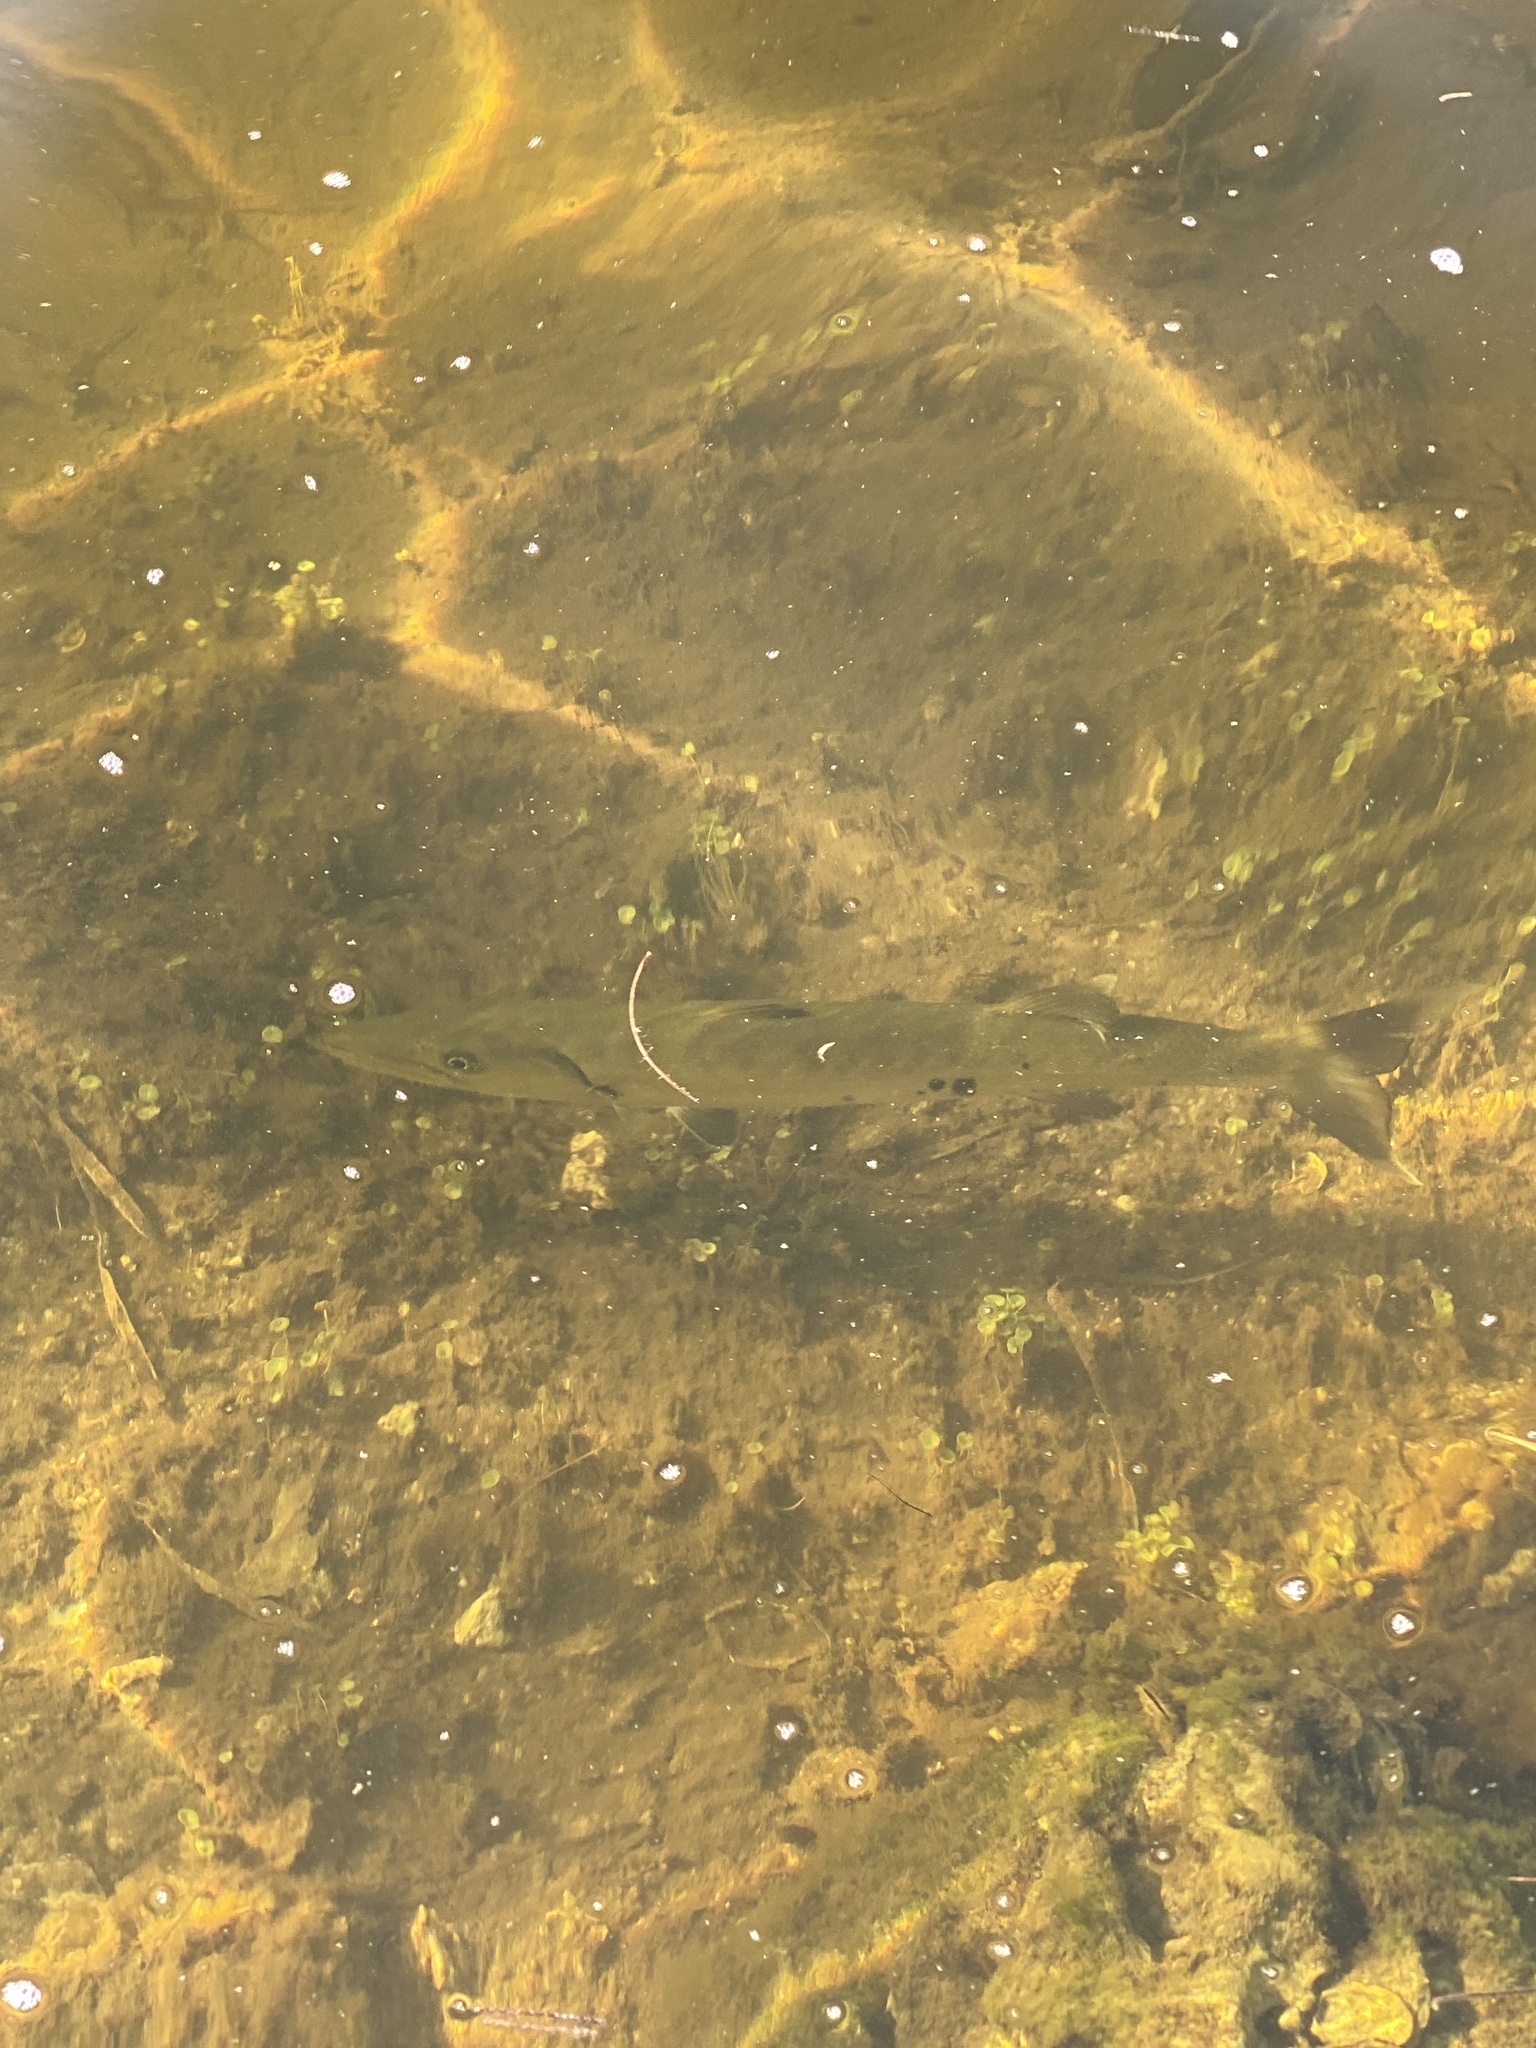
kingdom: Animalia
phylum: Chordata
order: Perciformes
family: Sphyraenidae
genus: Sphyraena
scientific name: Sphyraena barracuda
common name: Great barracuda
